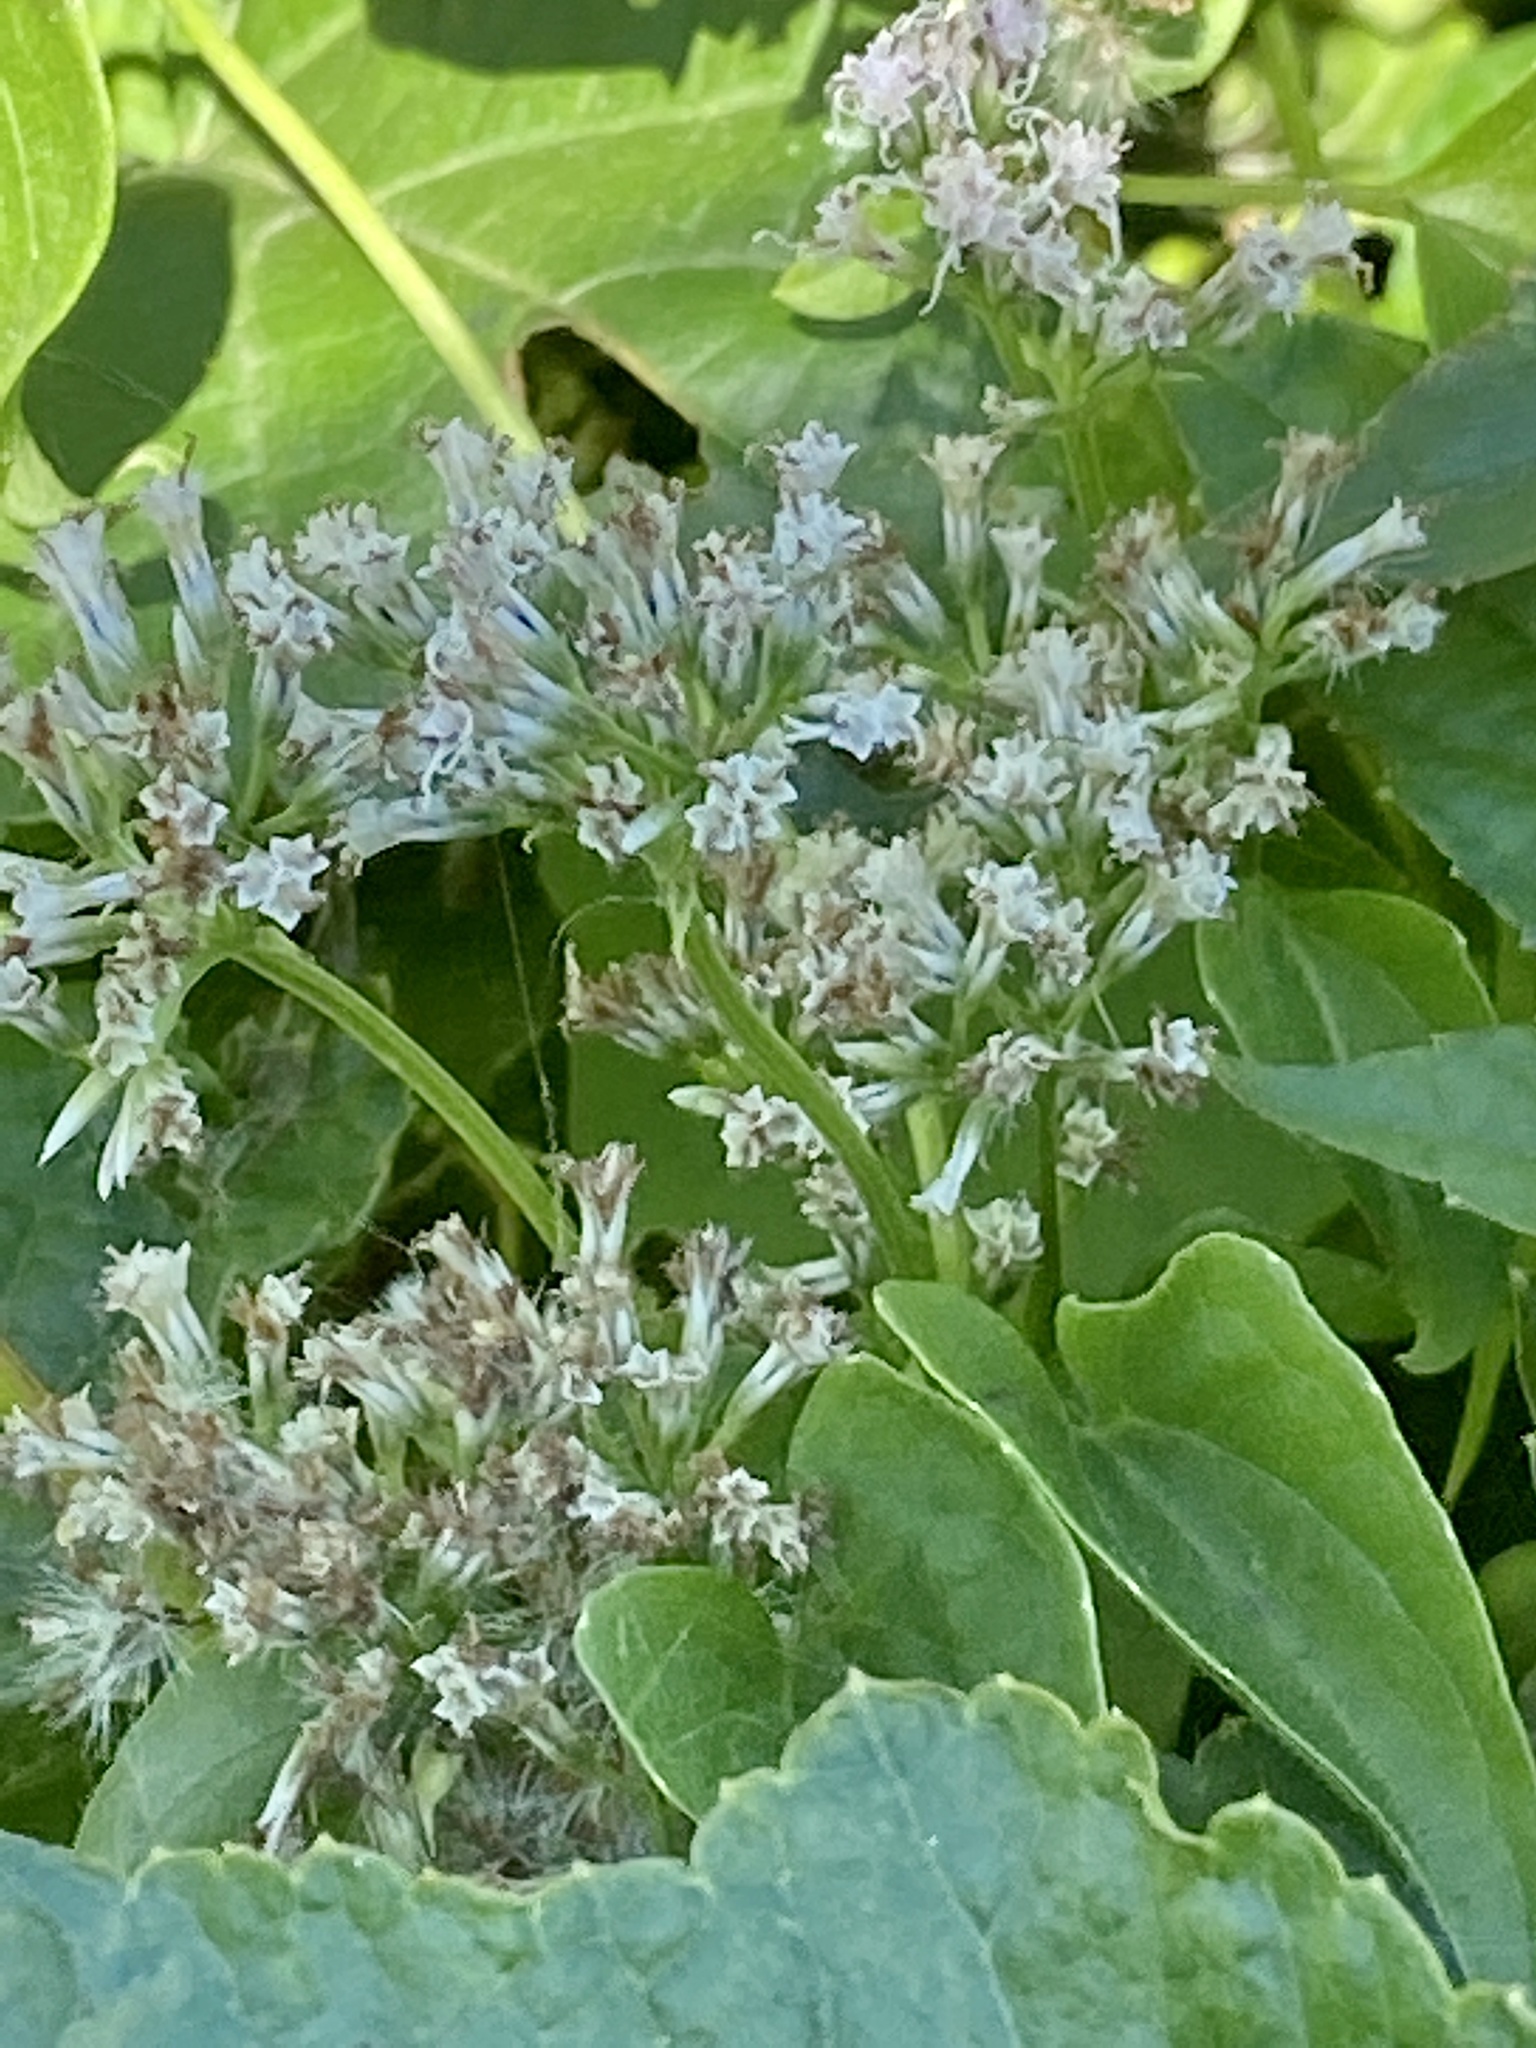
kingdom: Plantae
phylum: Tracheophyta
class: Magnoliopsida
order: Asterales
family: Asteraceae
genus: Mikania
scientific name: Mikania scandens
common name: Climbing hempvine
